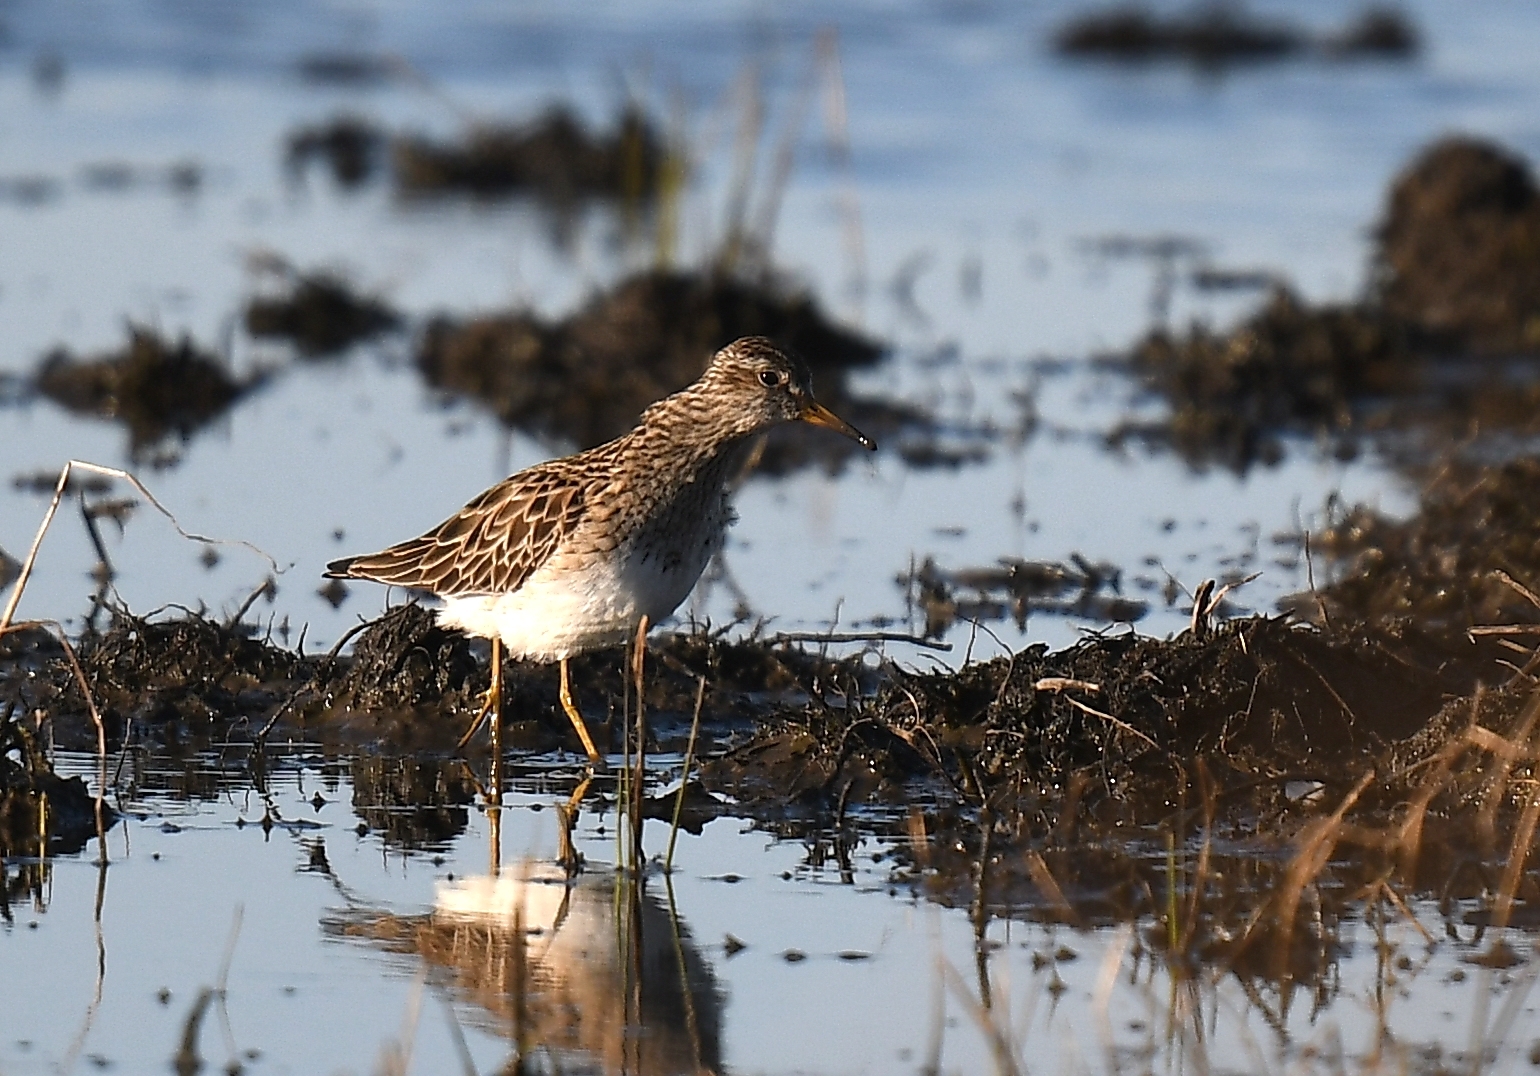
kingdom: Animalia
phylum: Chordata
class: Aves
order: Charadriiformes
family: Scolopacidae
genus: Calidris
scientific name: Calidris melanotos
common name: Pectoral sandpiper
